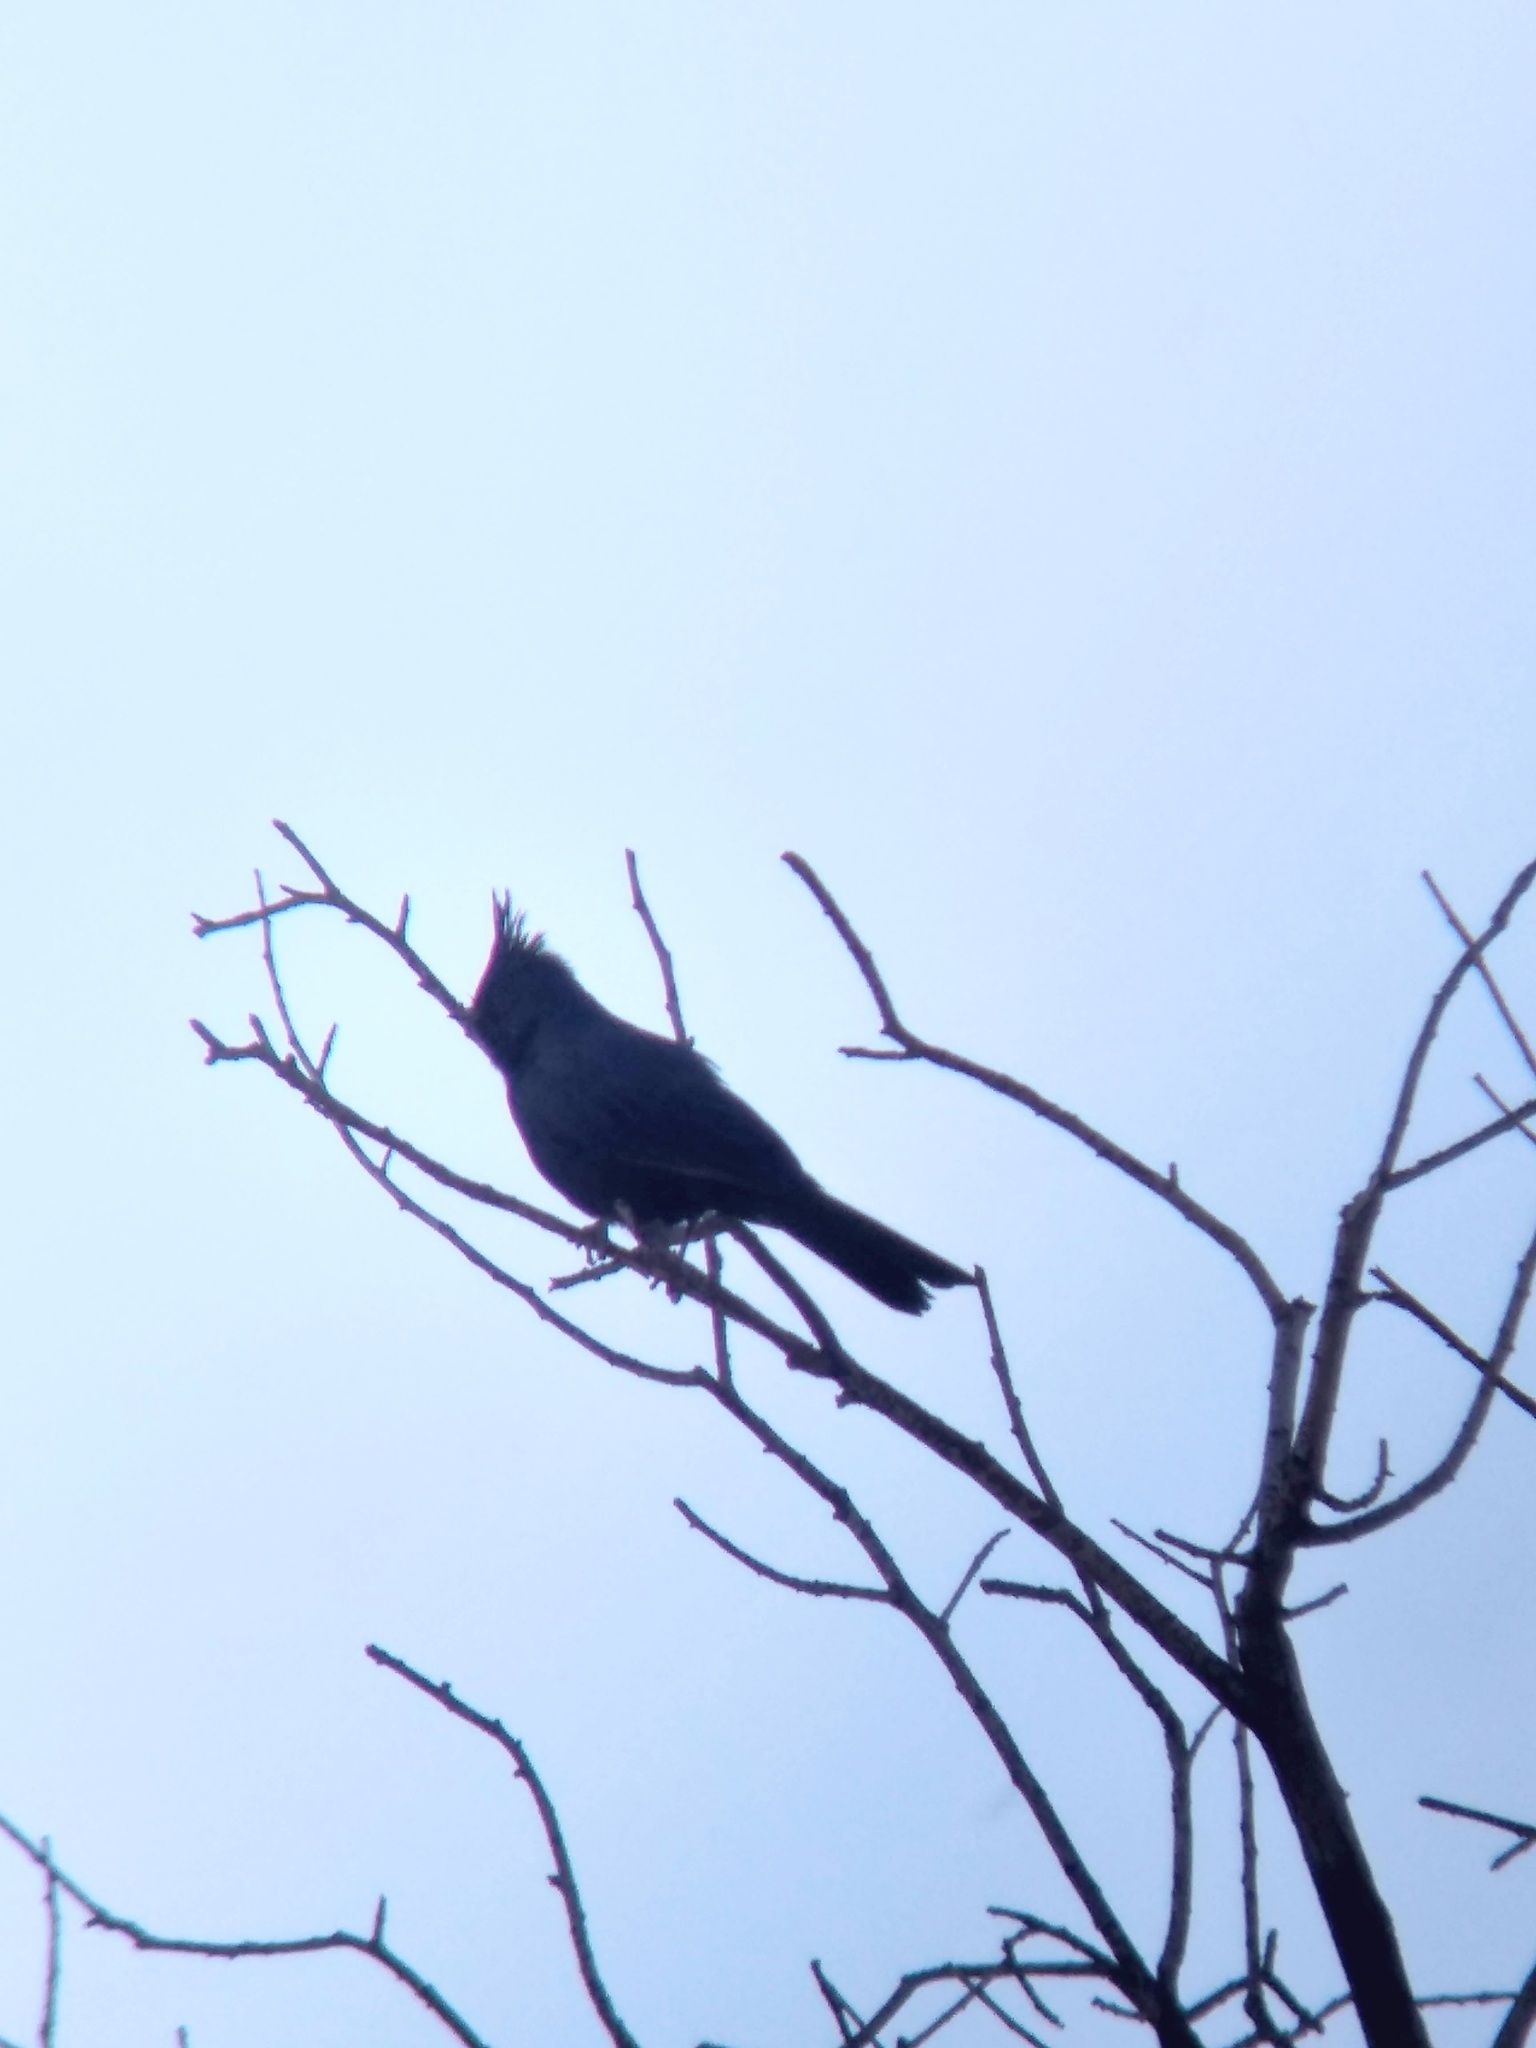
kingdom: Animalia
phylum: Chordata
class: Aves
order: Passeriformes
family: Ptilogonatidae
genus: Phainopepla
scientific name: Phainopepla nitens
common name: Phainopepla
